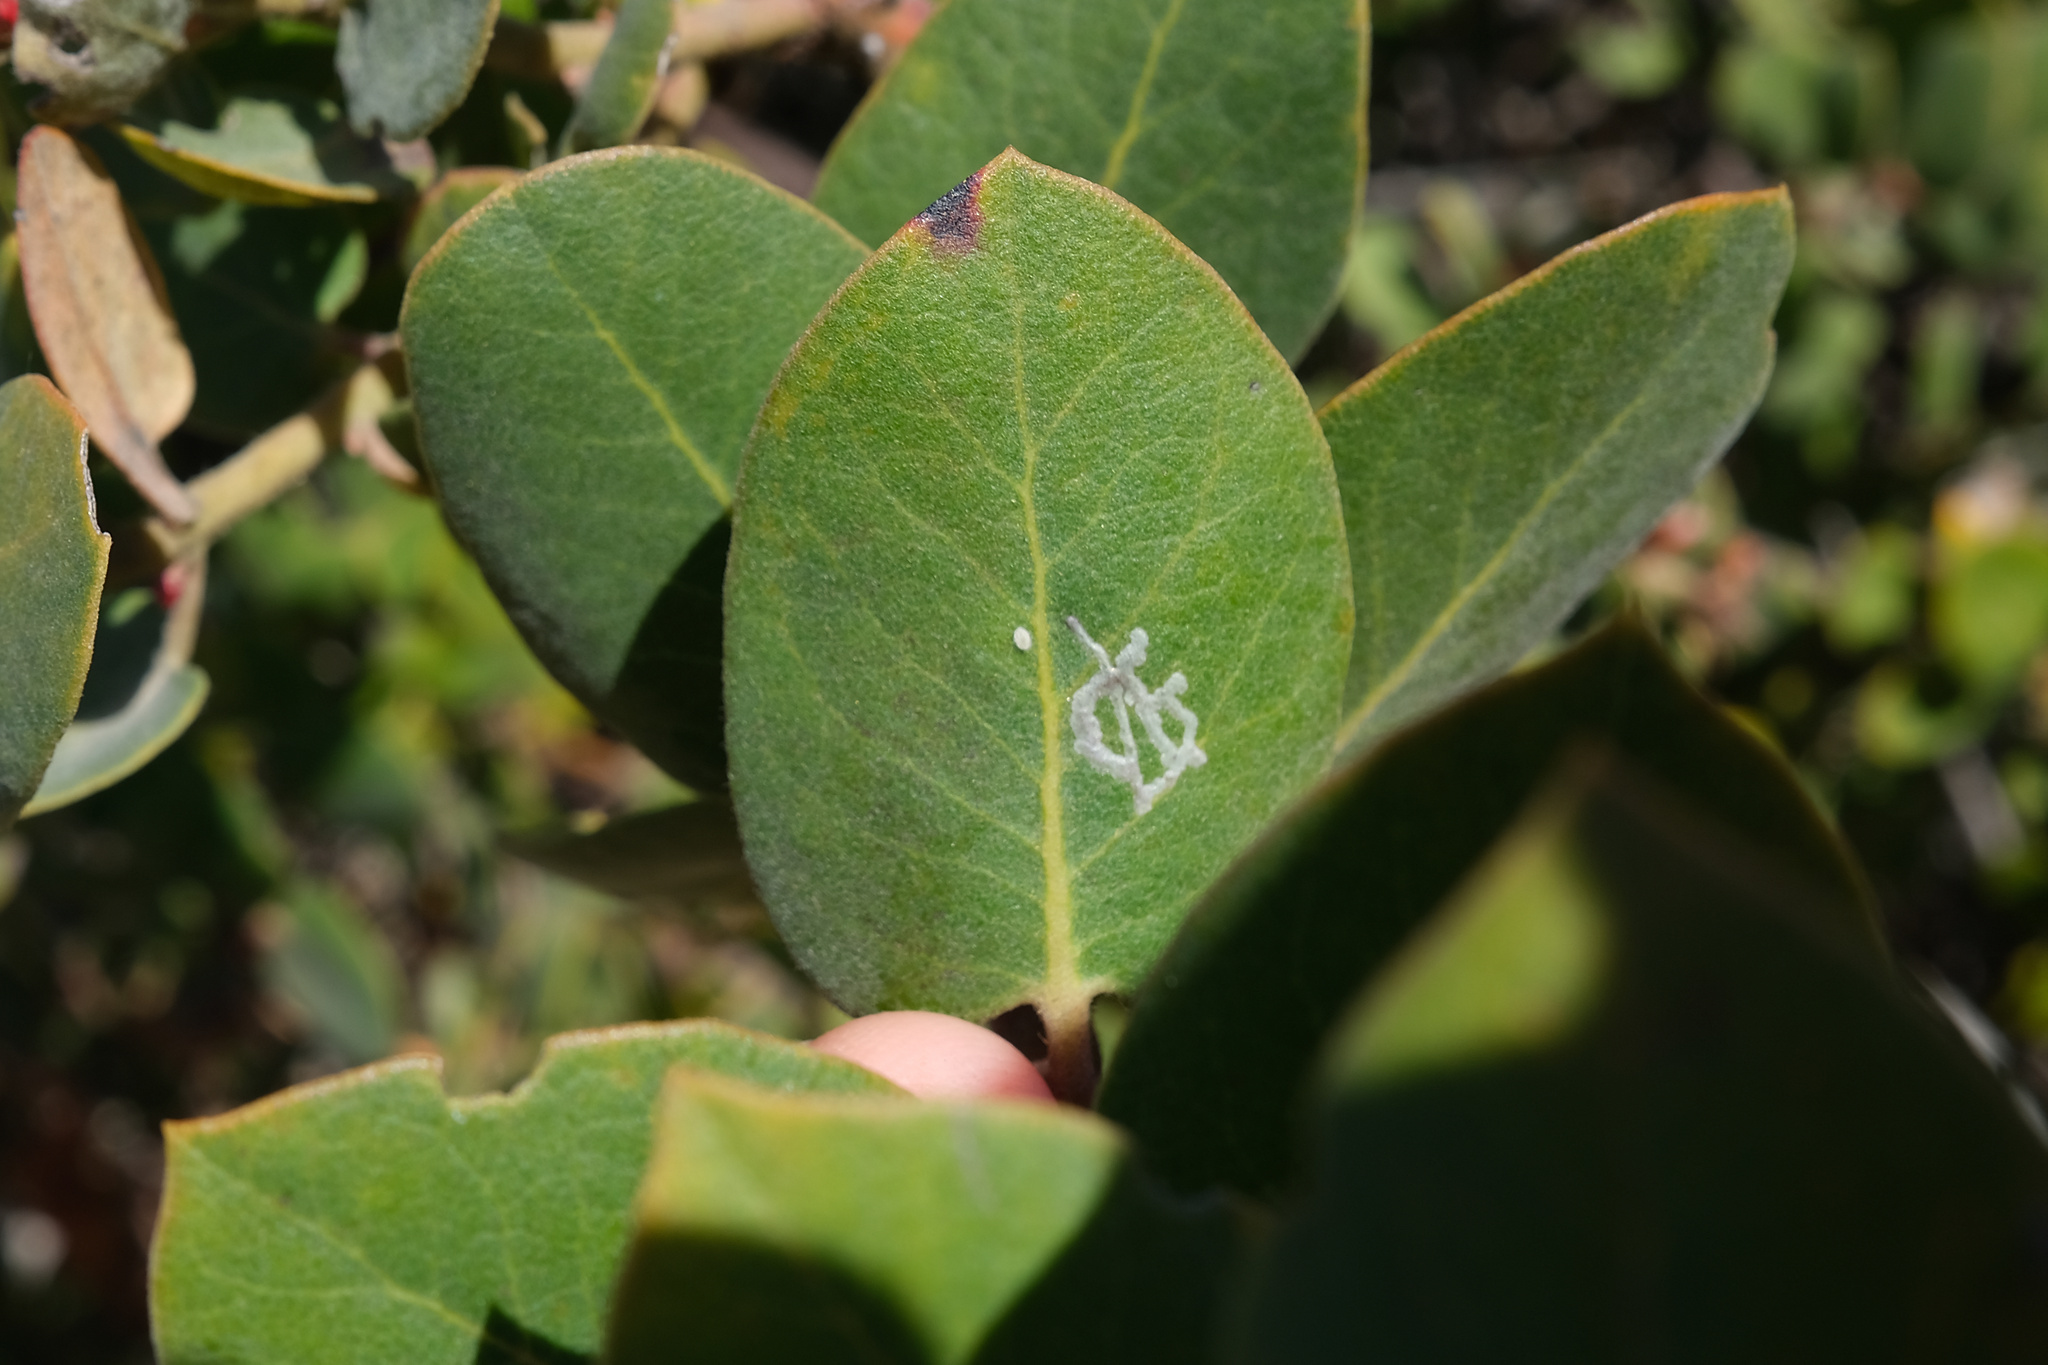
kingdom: Animalia
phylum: Arthropoda
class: Insecta
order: Lepidoptera
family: Gracillariidae
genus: Marmara
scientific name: Marmara arbutiella
